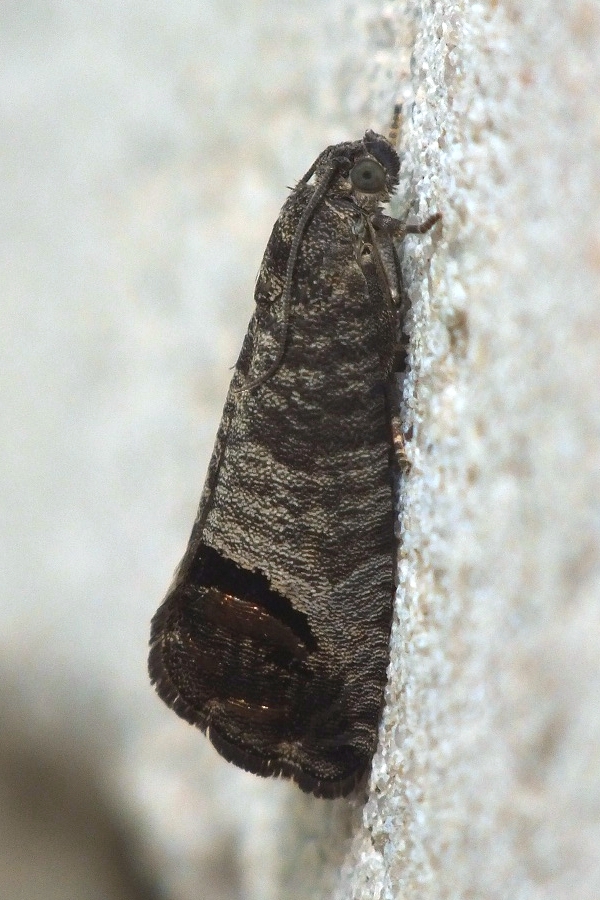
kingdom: Animalia
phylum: Arthropoda
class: Insecta
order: Lepidoptera
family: Tortricidae
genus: Cydia
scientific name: Cydia pomonella
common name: Codling moth
